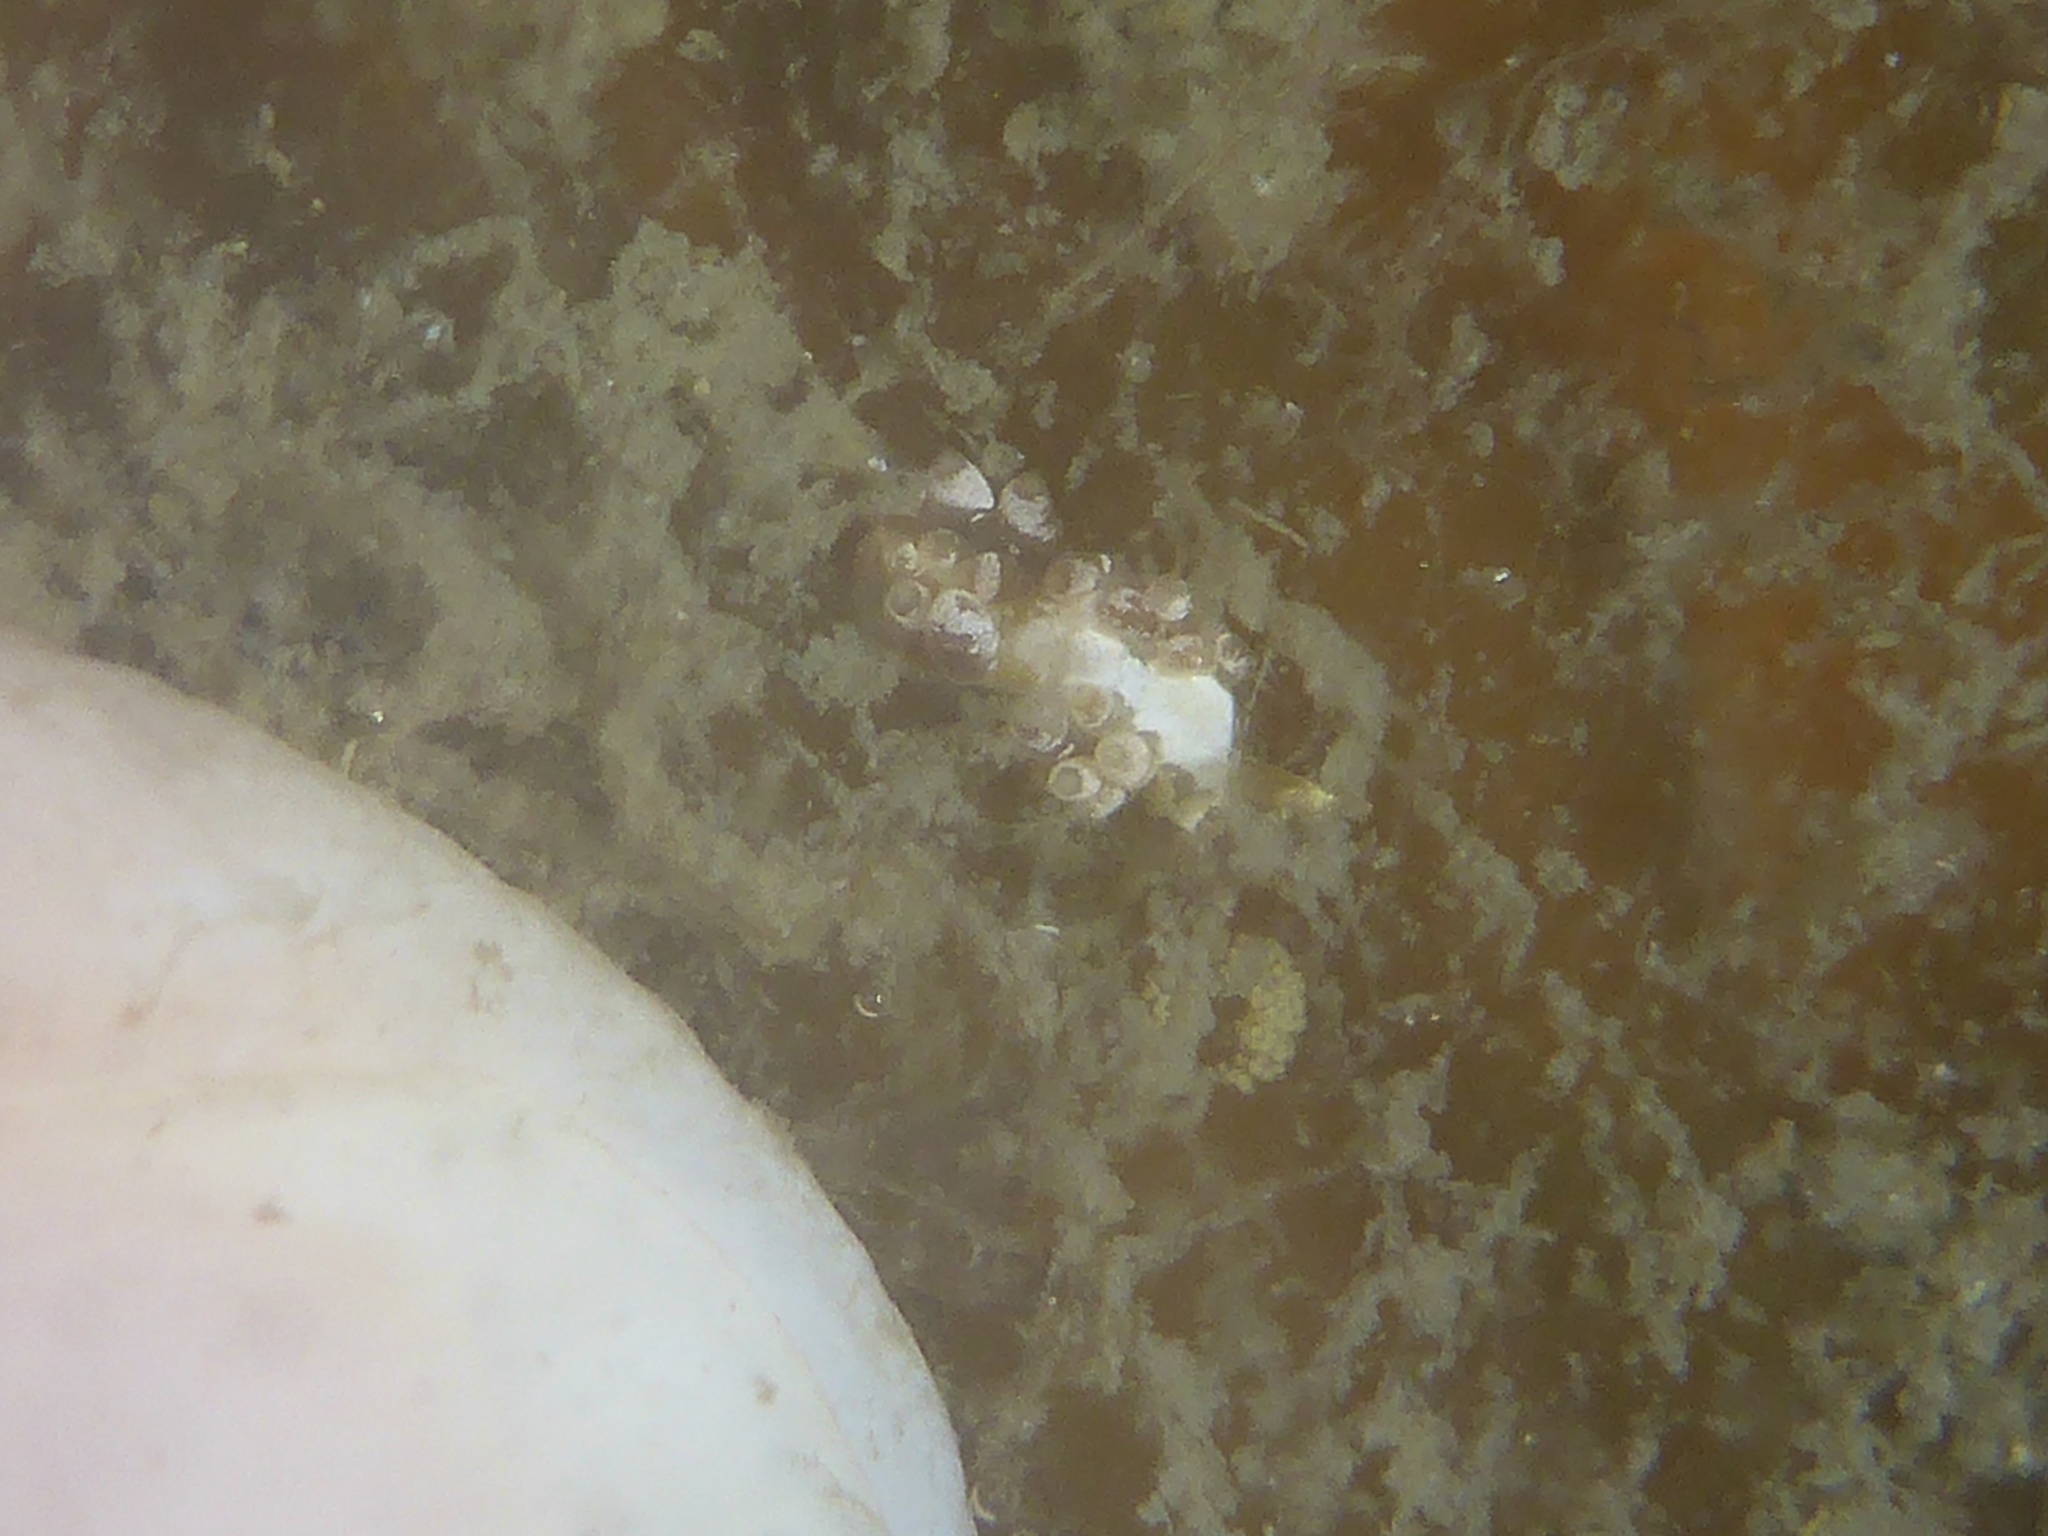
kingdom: Animalia
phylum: Mollusca
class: Gastropoda
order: Nudibranchia
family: Trinchesiidae
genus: Trinchesia
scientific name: Trinchesia albocrusta
